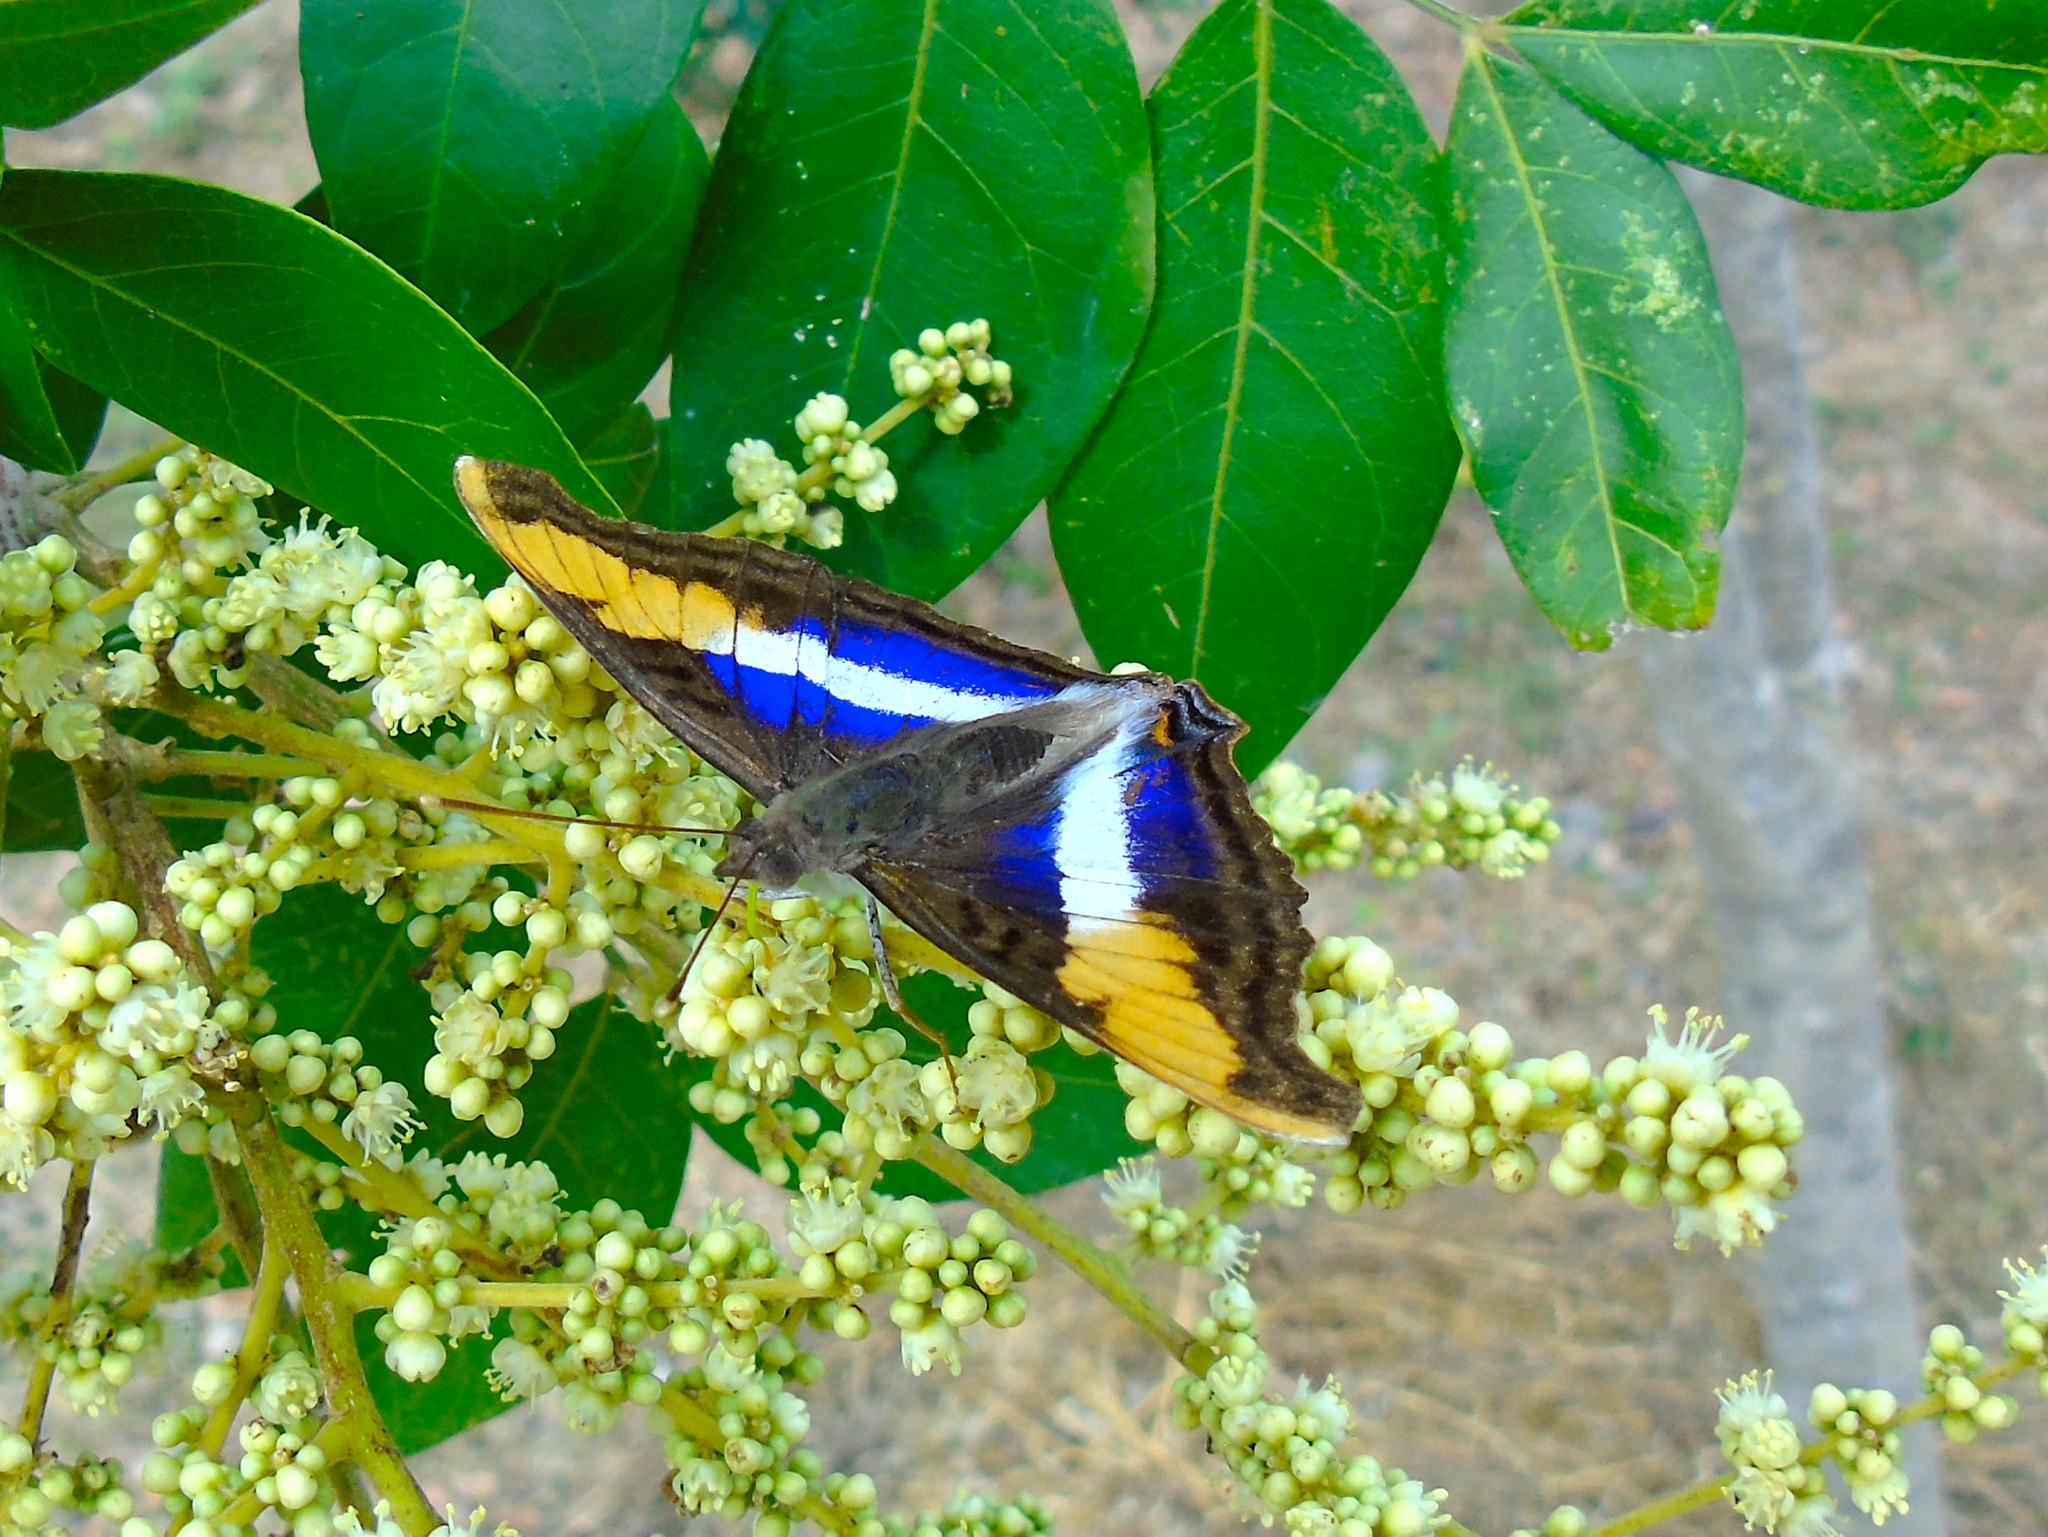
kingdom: Animalia
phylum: Arthropoda
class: Insecta
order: Lepidoptera
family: Nymphalidae
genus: Doxocopa
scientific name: Doxocopa laure
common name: Silver emperor
